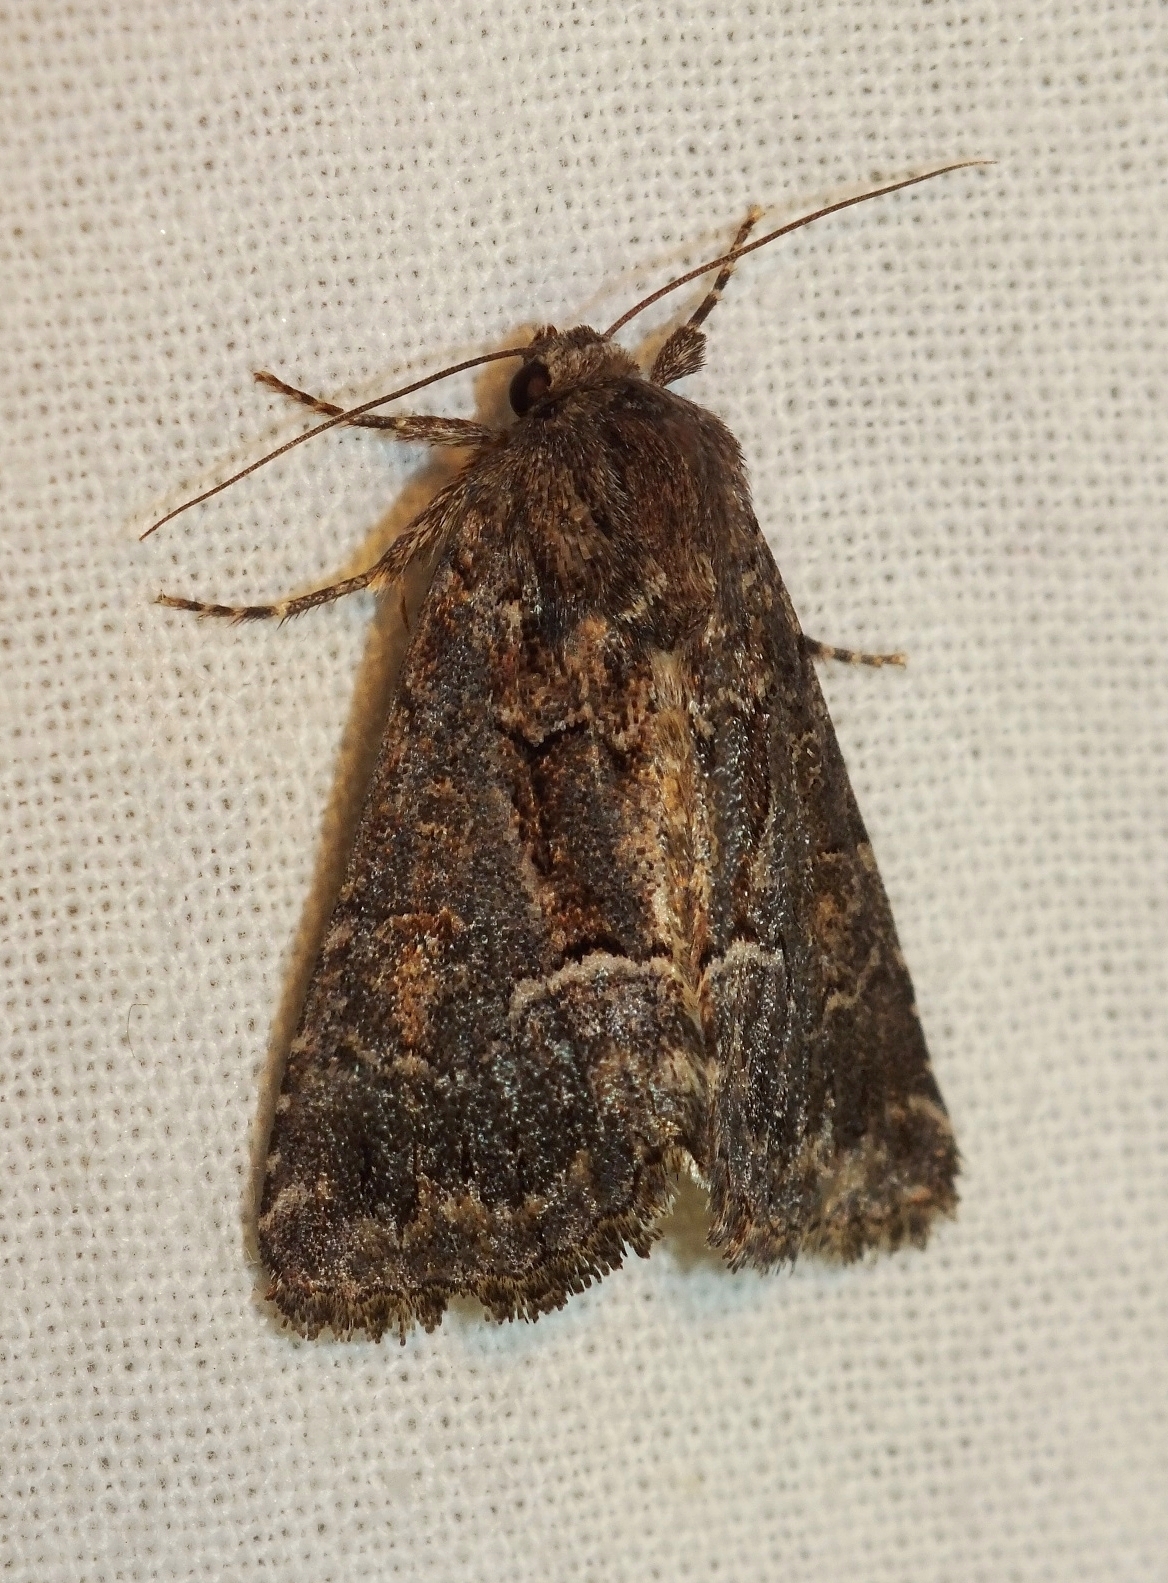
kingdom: Animalia
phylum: Arthropoda
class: Insecta
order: Lepidoptera
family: Noctuidae
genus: Thalpophila
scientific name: Thalpophila matura
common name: Straw underwing
